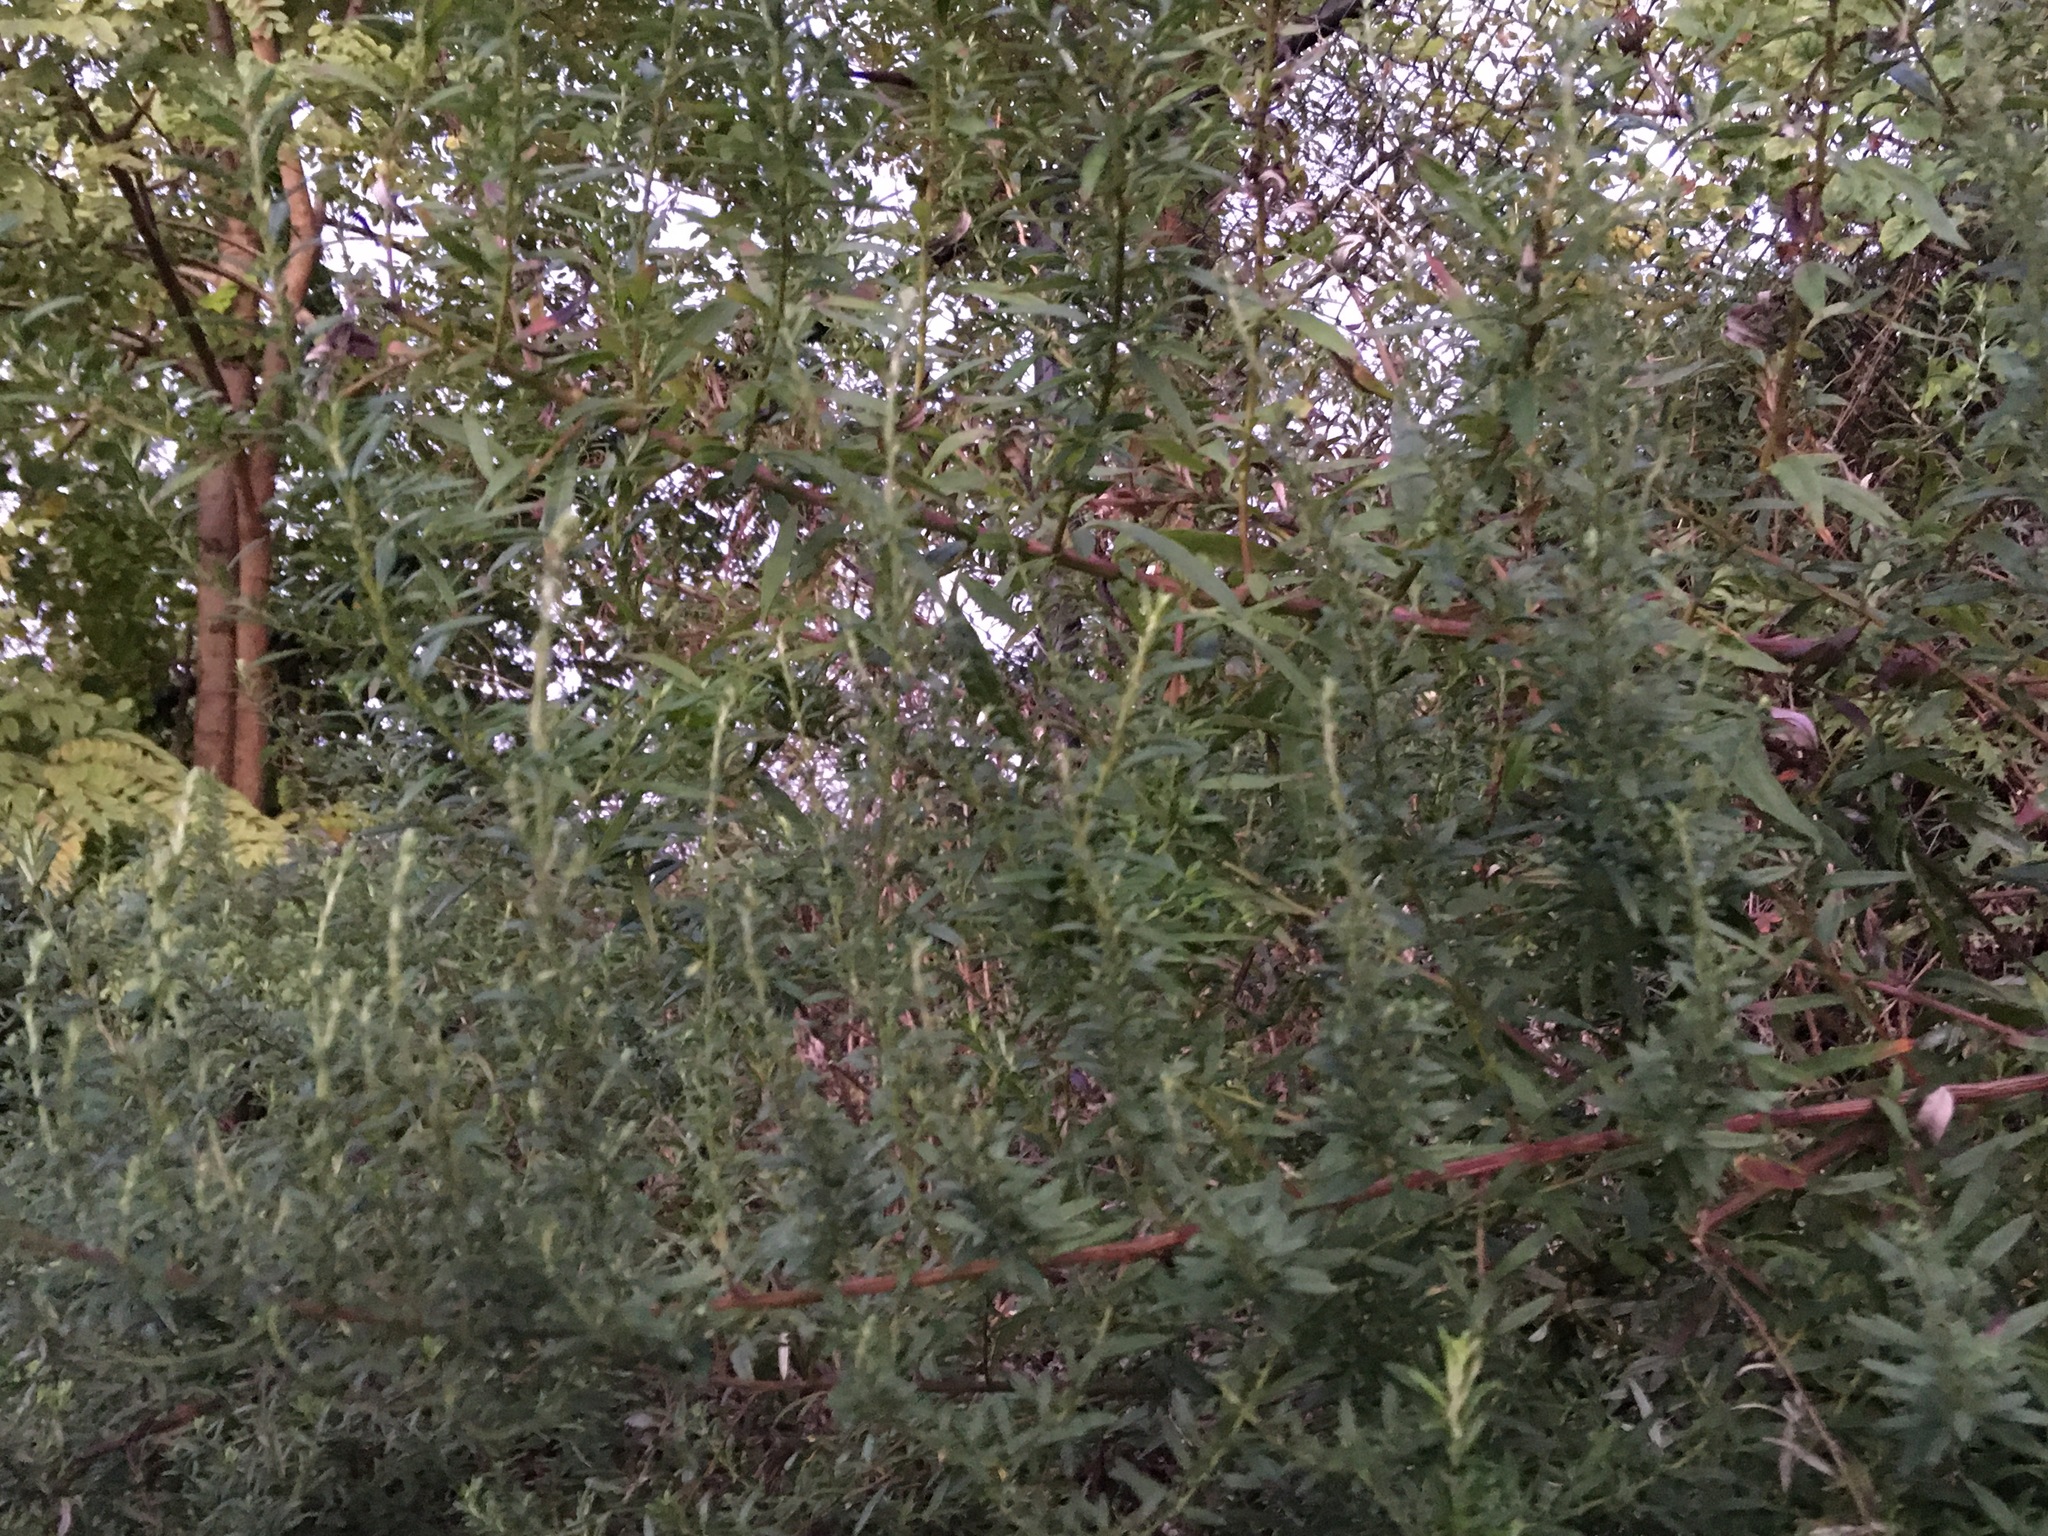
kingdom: Plantae
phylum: Tracheophyta
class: Magnoliopsida
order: Asterales
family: Asteraceae
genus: Artemisia
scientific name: Artemisia vulgaris
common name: Mugwort
